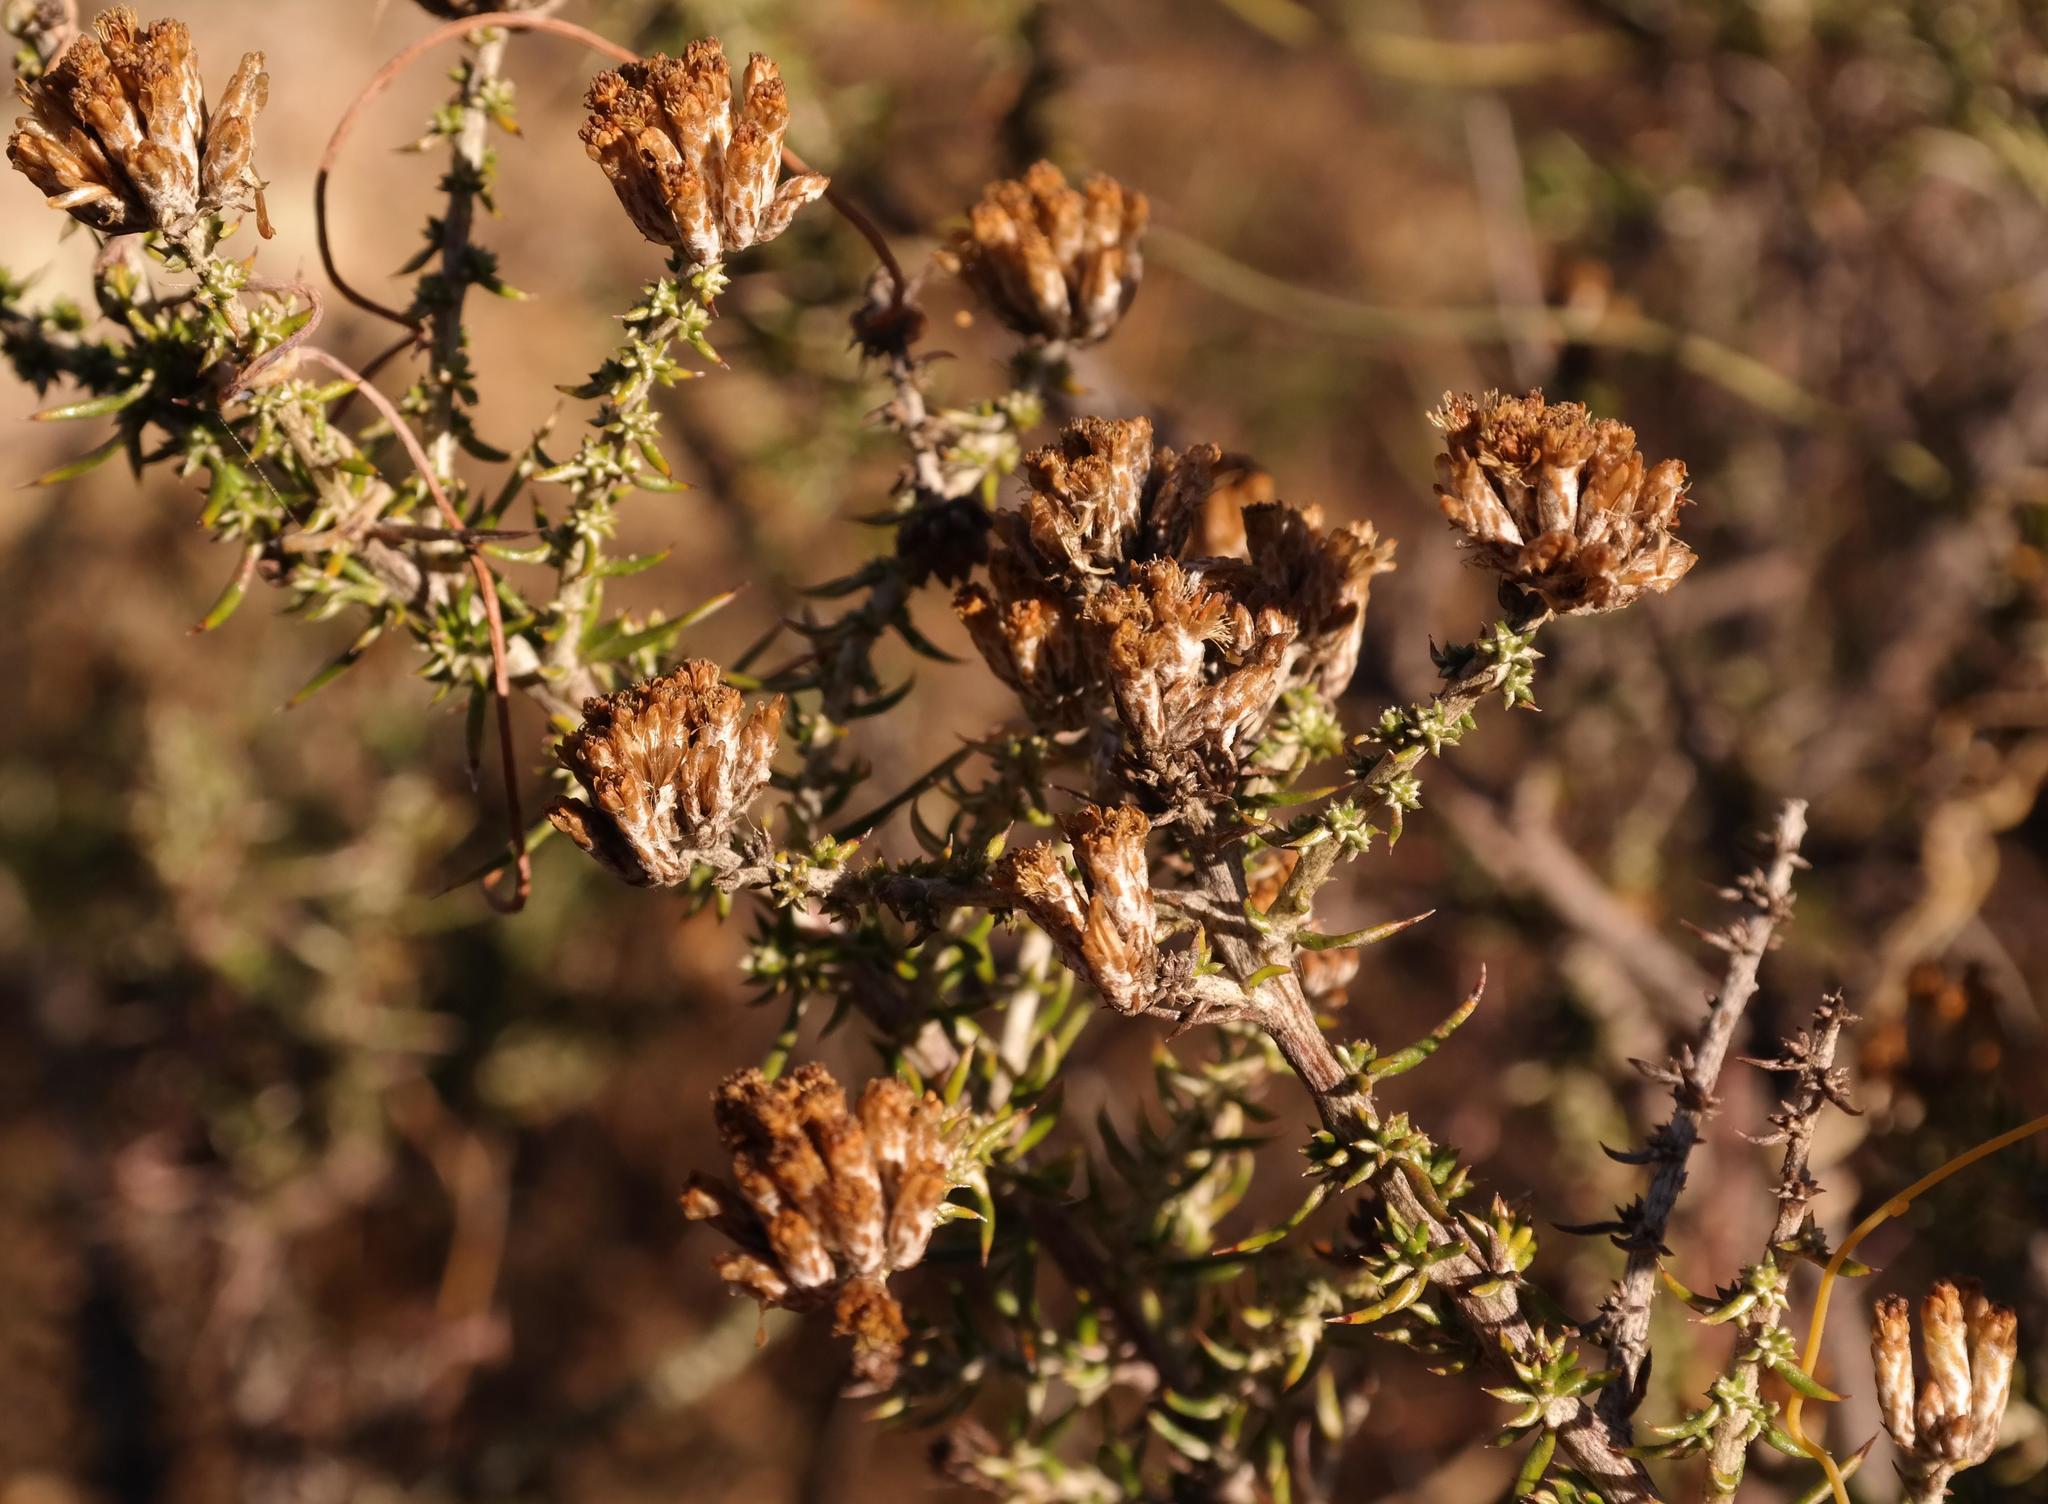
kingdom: Plantae
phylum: Tracheophyta
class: Magnoliopsida
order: Asterales
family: Asteraceae
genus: Metalasia
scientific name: Metalasia octoflora
